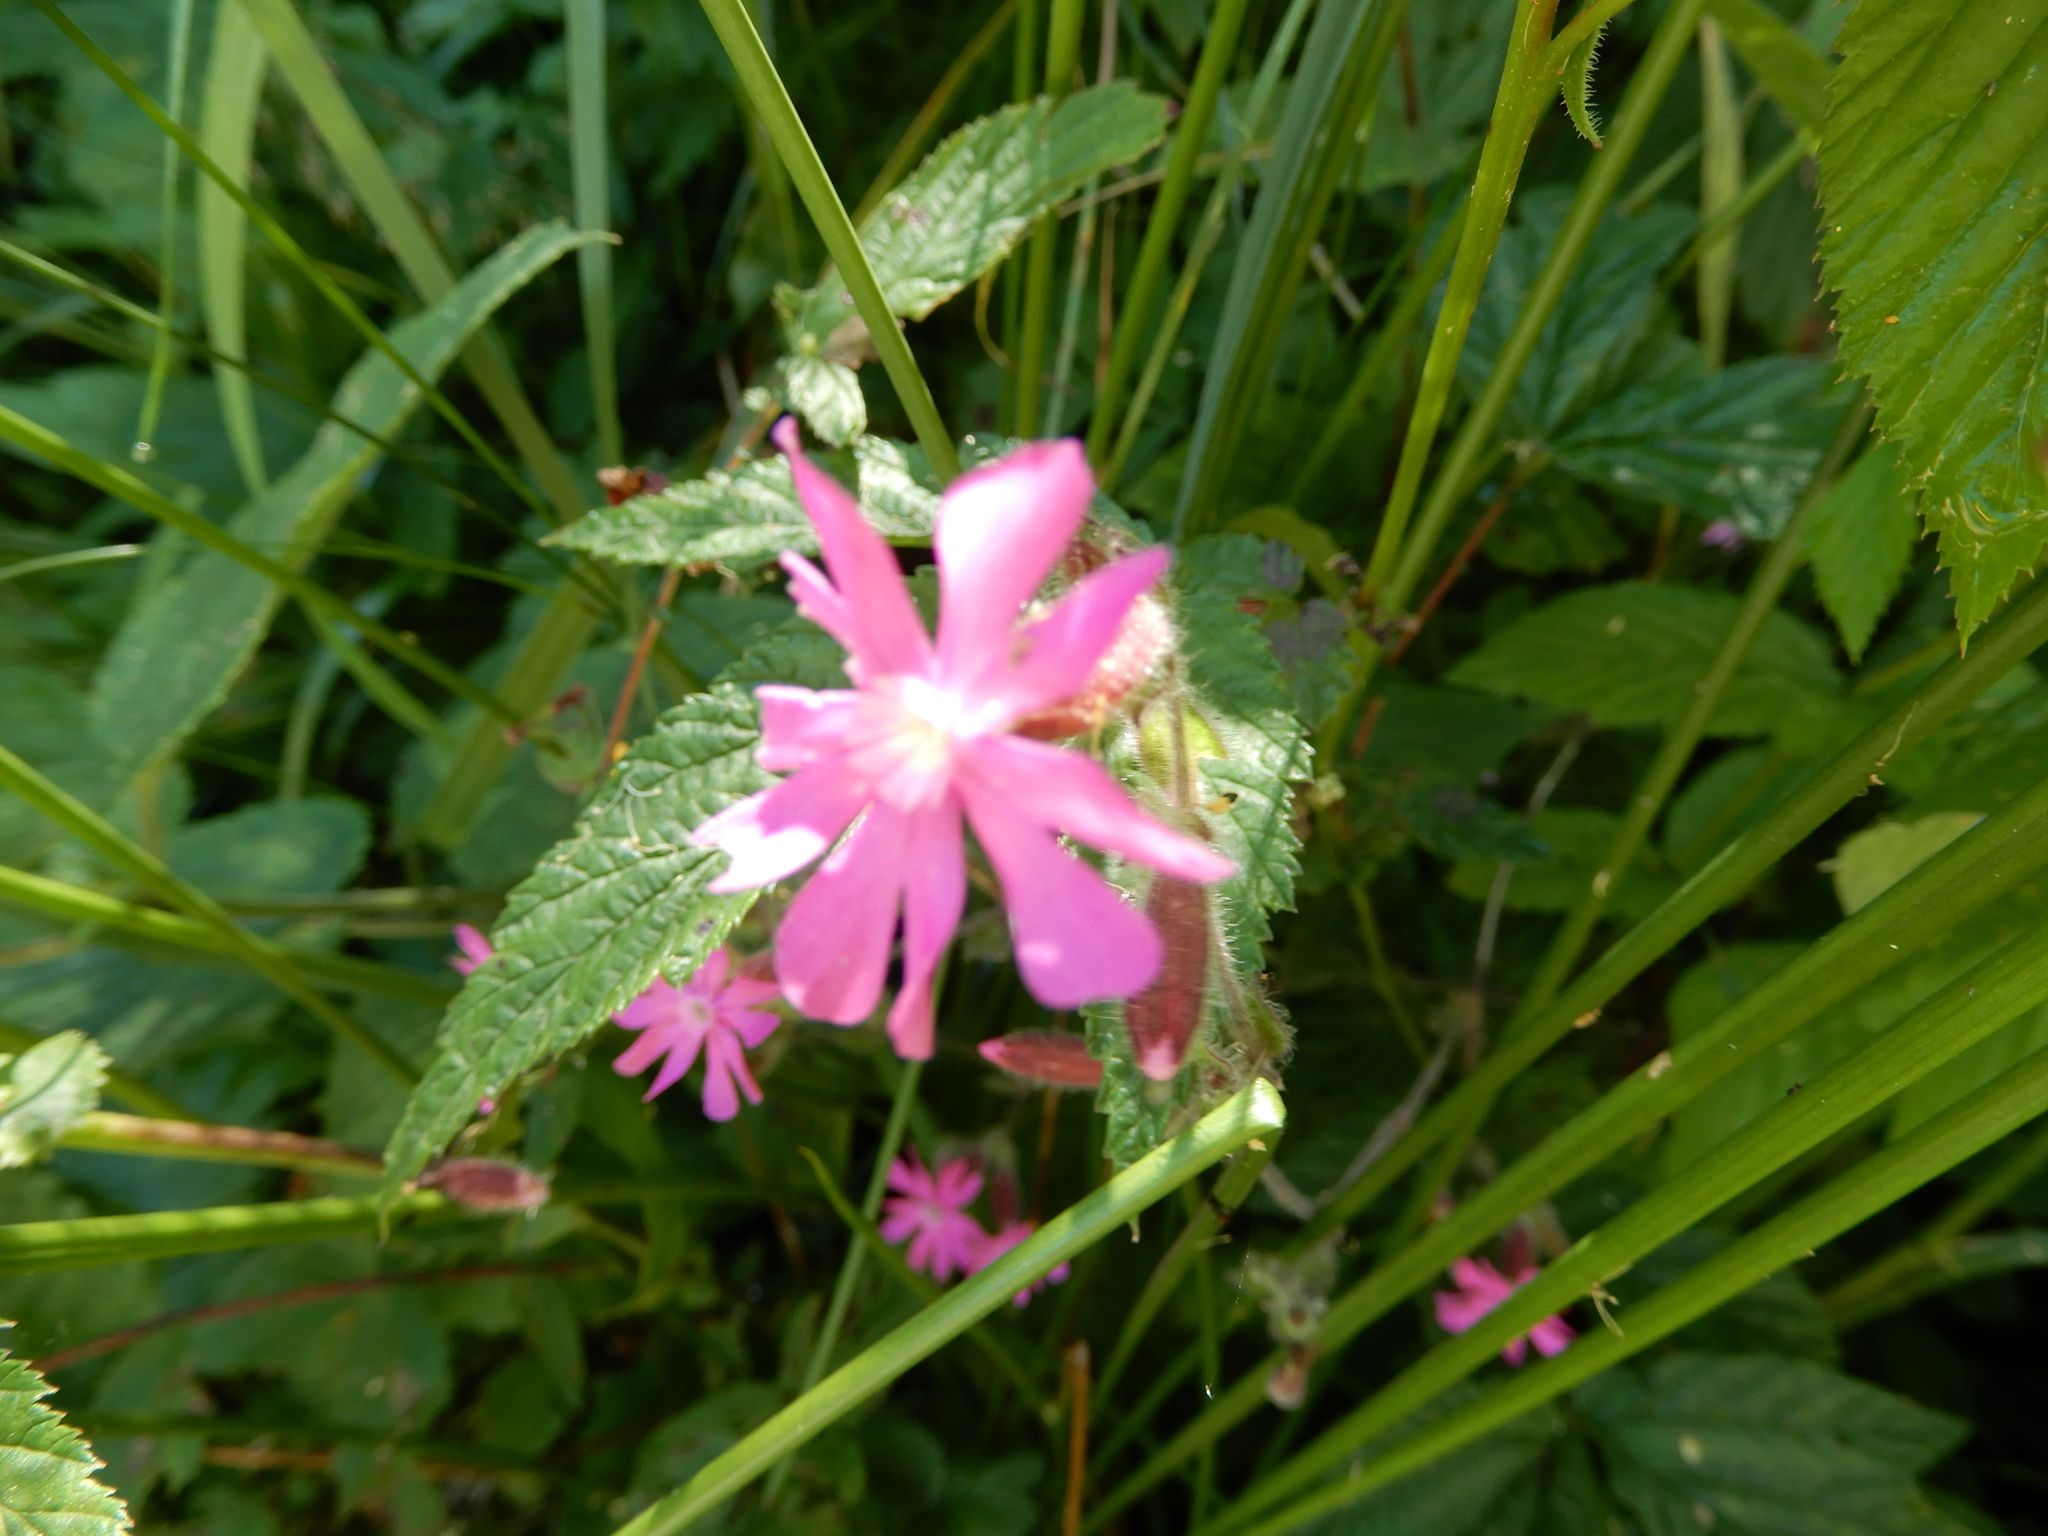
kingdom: Plantae
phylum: Tracheophyta
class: Magnoliopsida
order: Caryophyllales
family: Caryophyllaceae
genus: Silene
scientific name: Silene dioica
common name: Red campion
